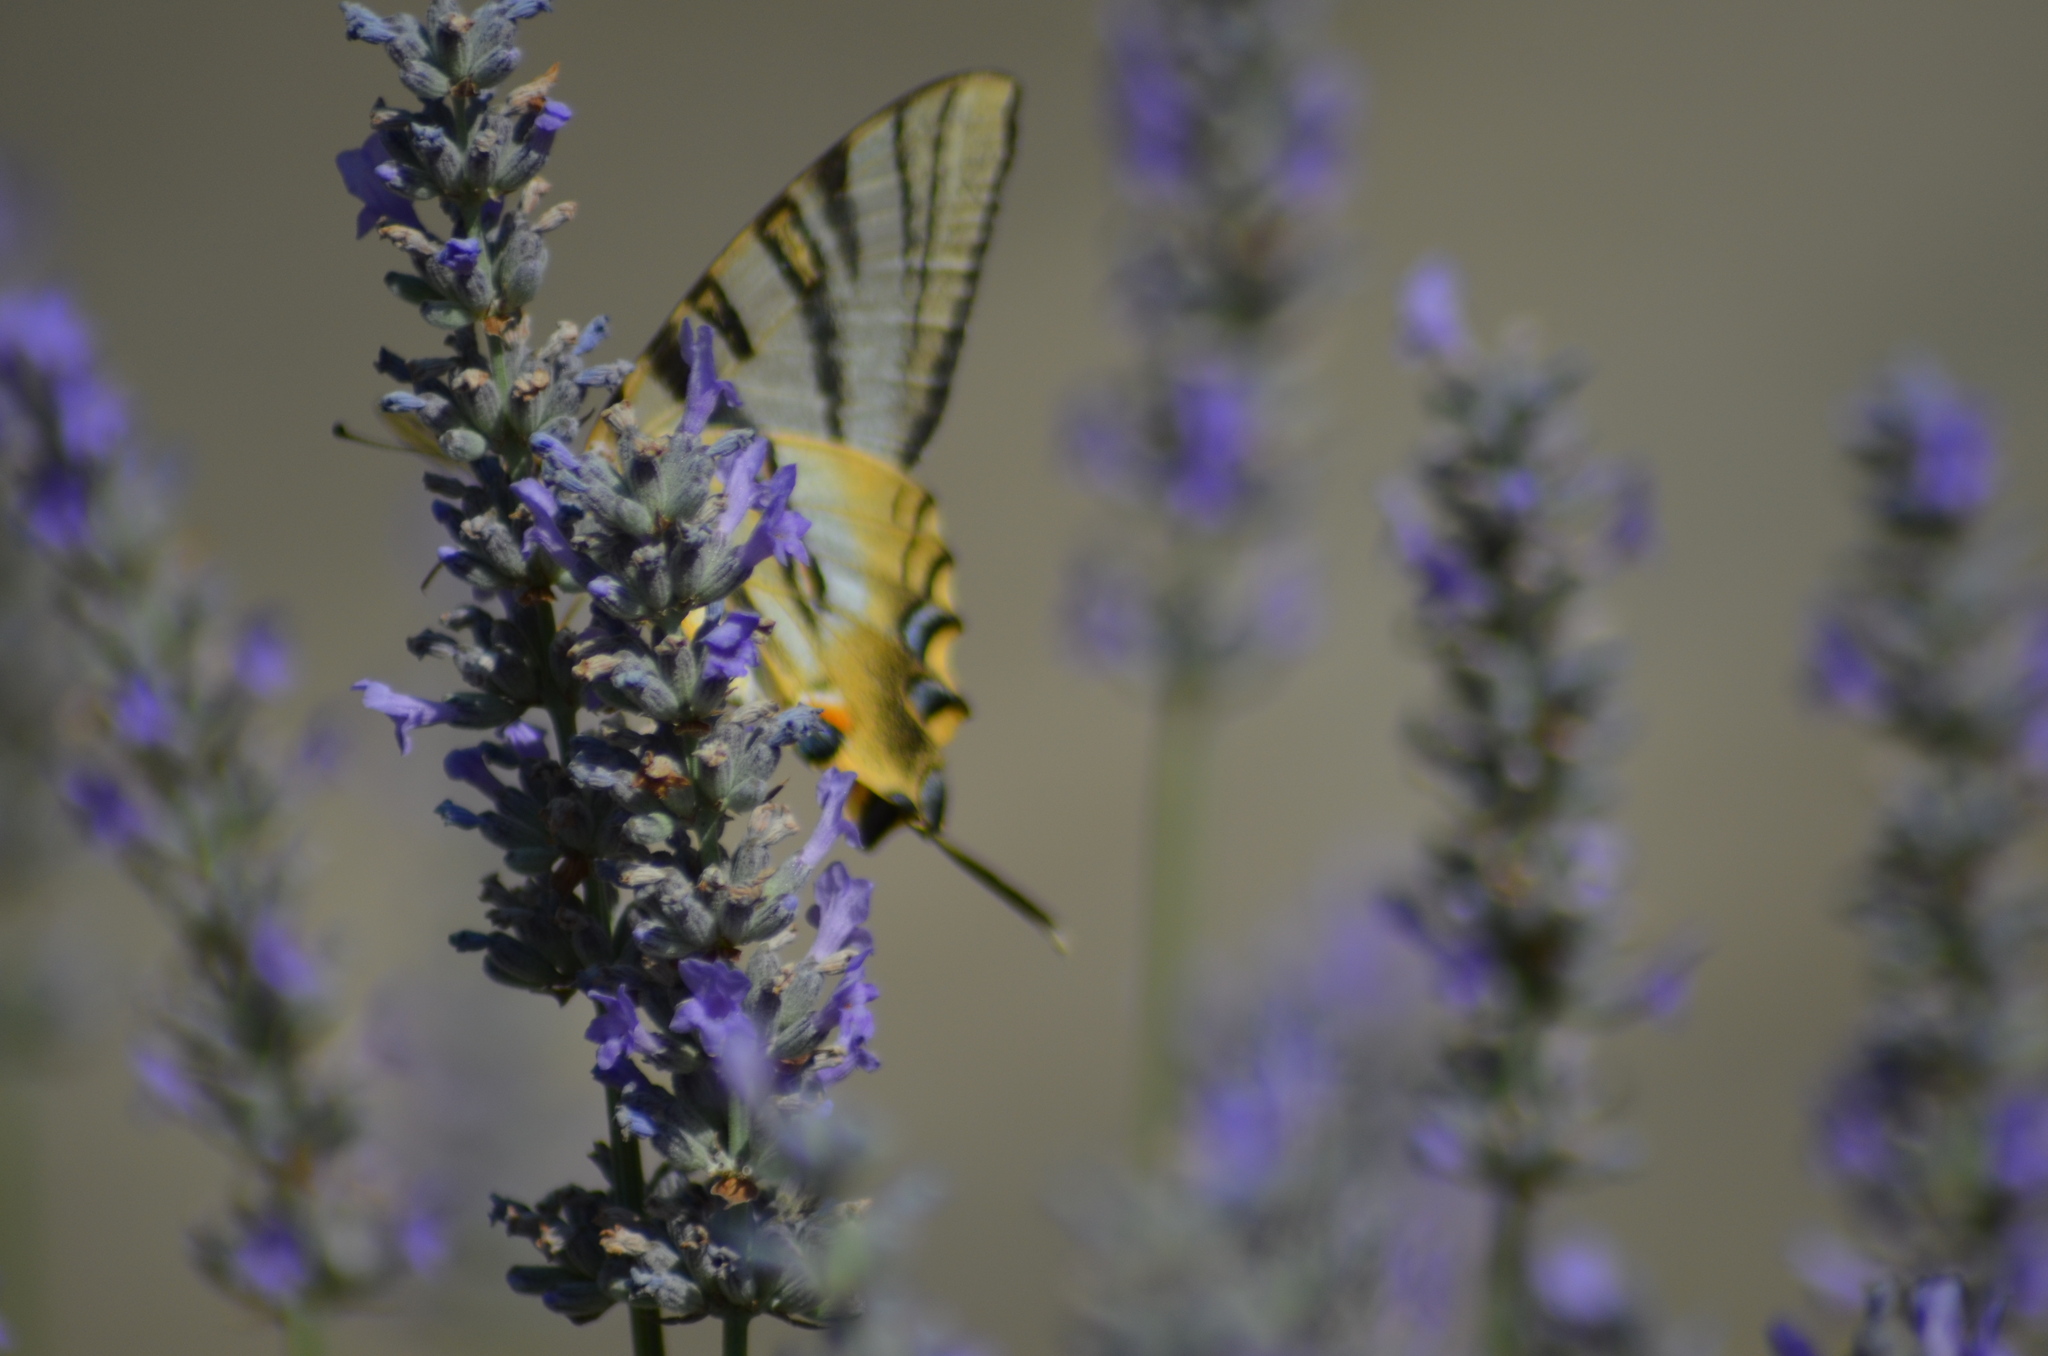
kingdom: Animalia
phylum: Arthropoda
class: Insecta
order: Lepidoptera
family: Papilionidae
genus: Iphiclides
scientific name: Iphiclides feisthamelii
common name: Iberian scarce swallowtail
